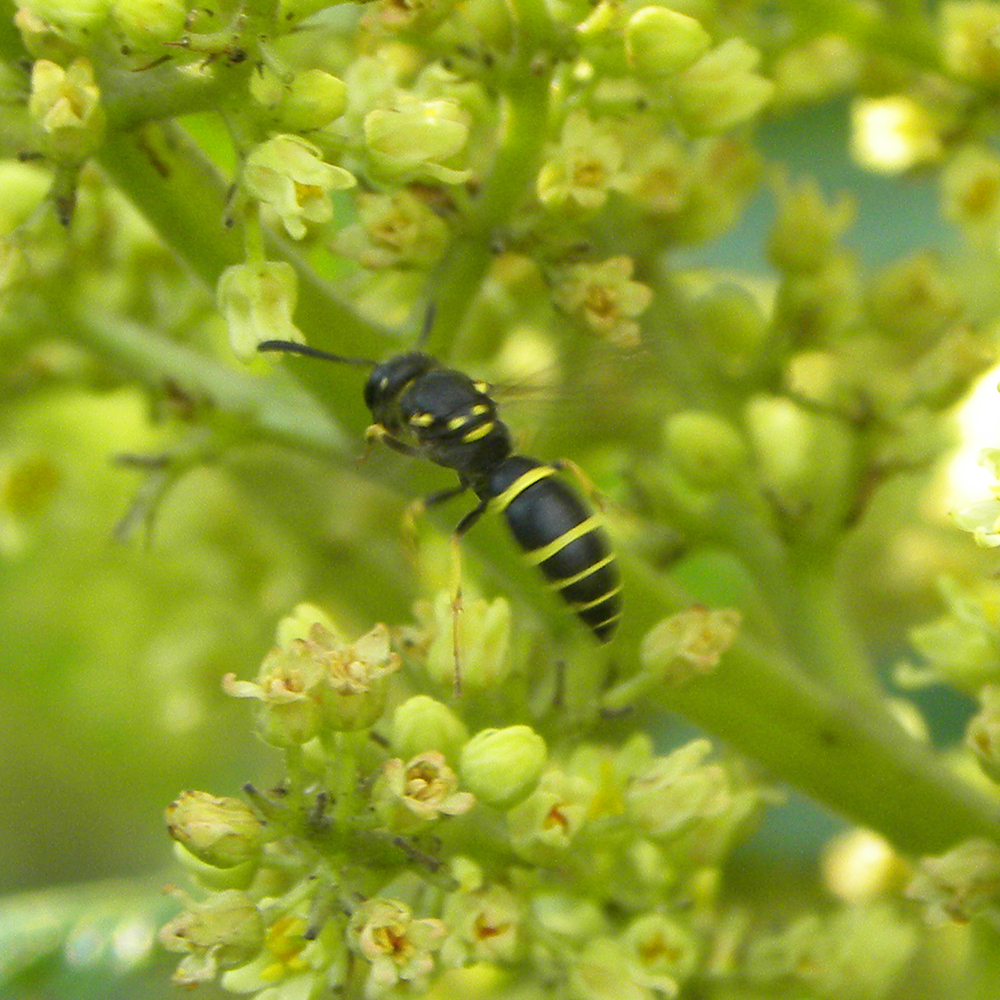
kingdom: Animalia
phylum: Arthropoda
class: Insecta
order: Hymenoptera
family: Vespidae
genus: Ancistrocerus
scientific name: Ancistrocerus adiabatus
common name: Bramble mason wasp
